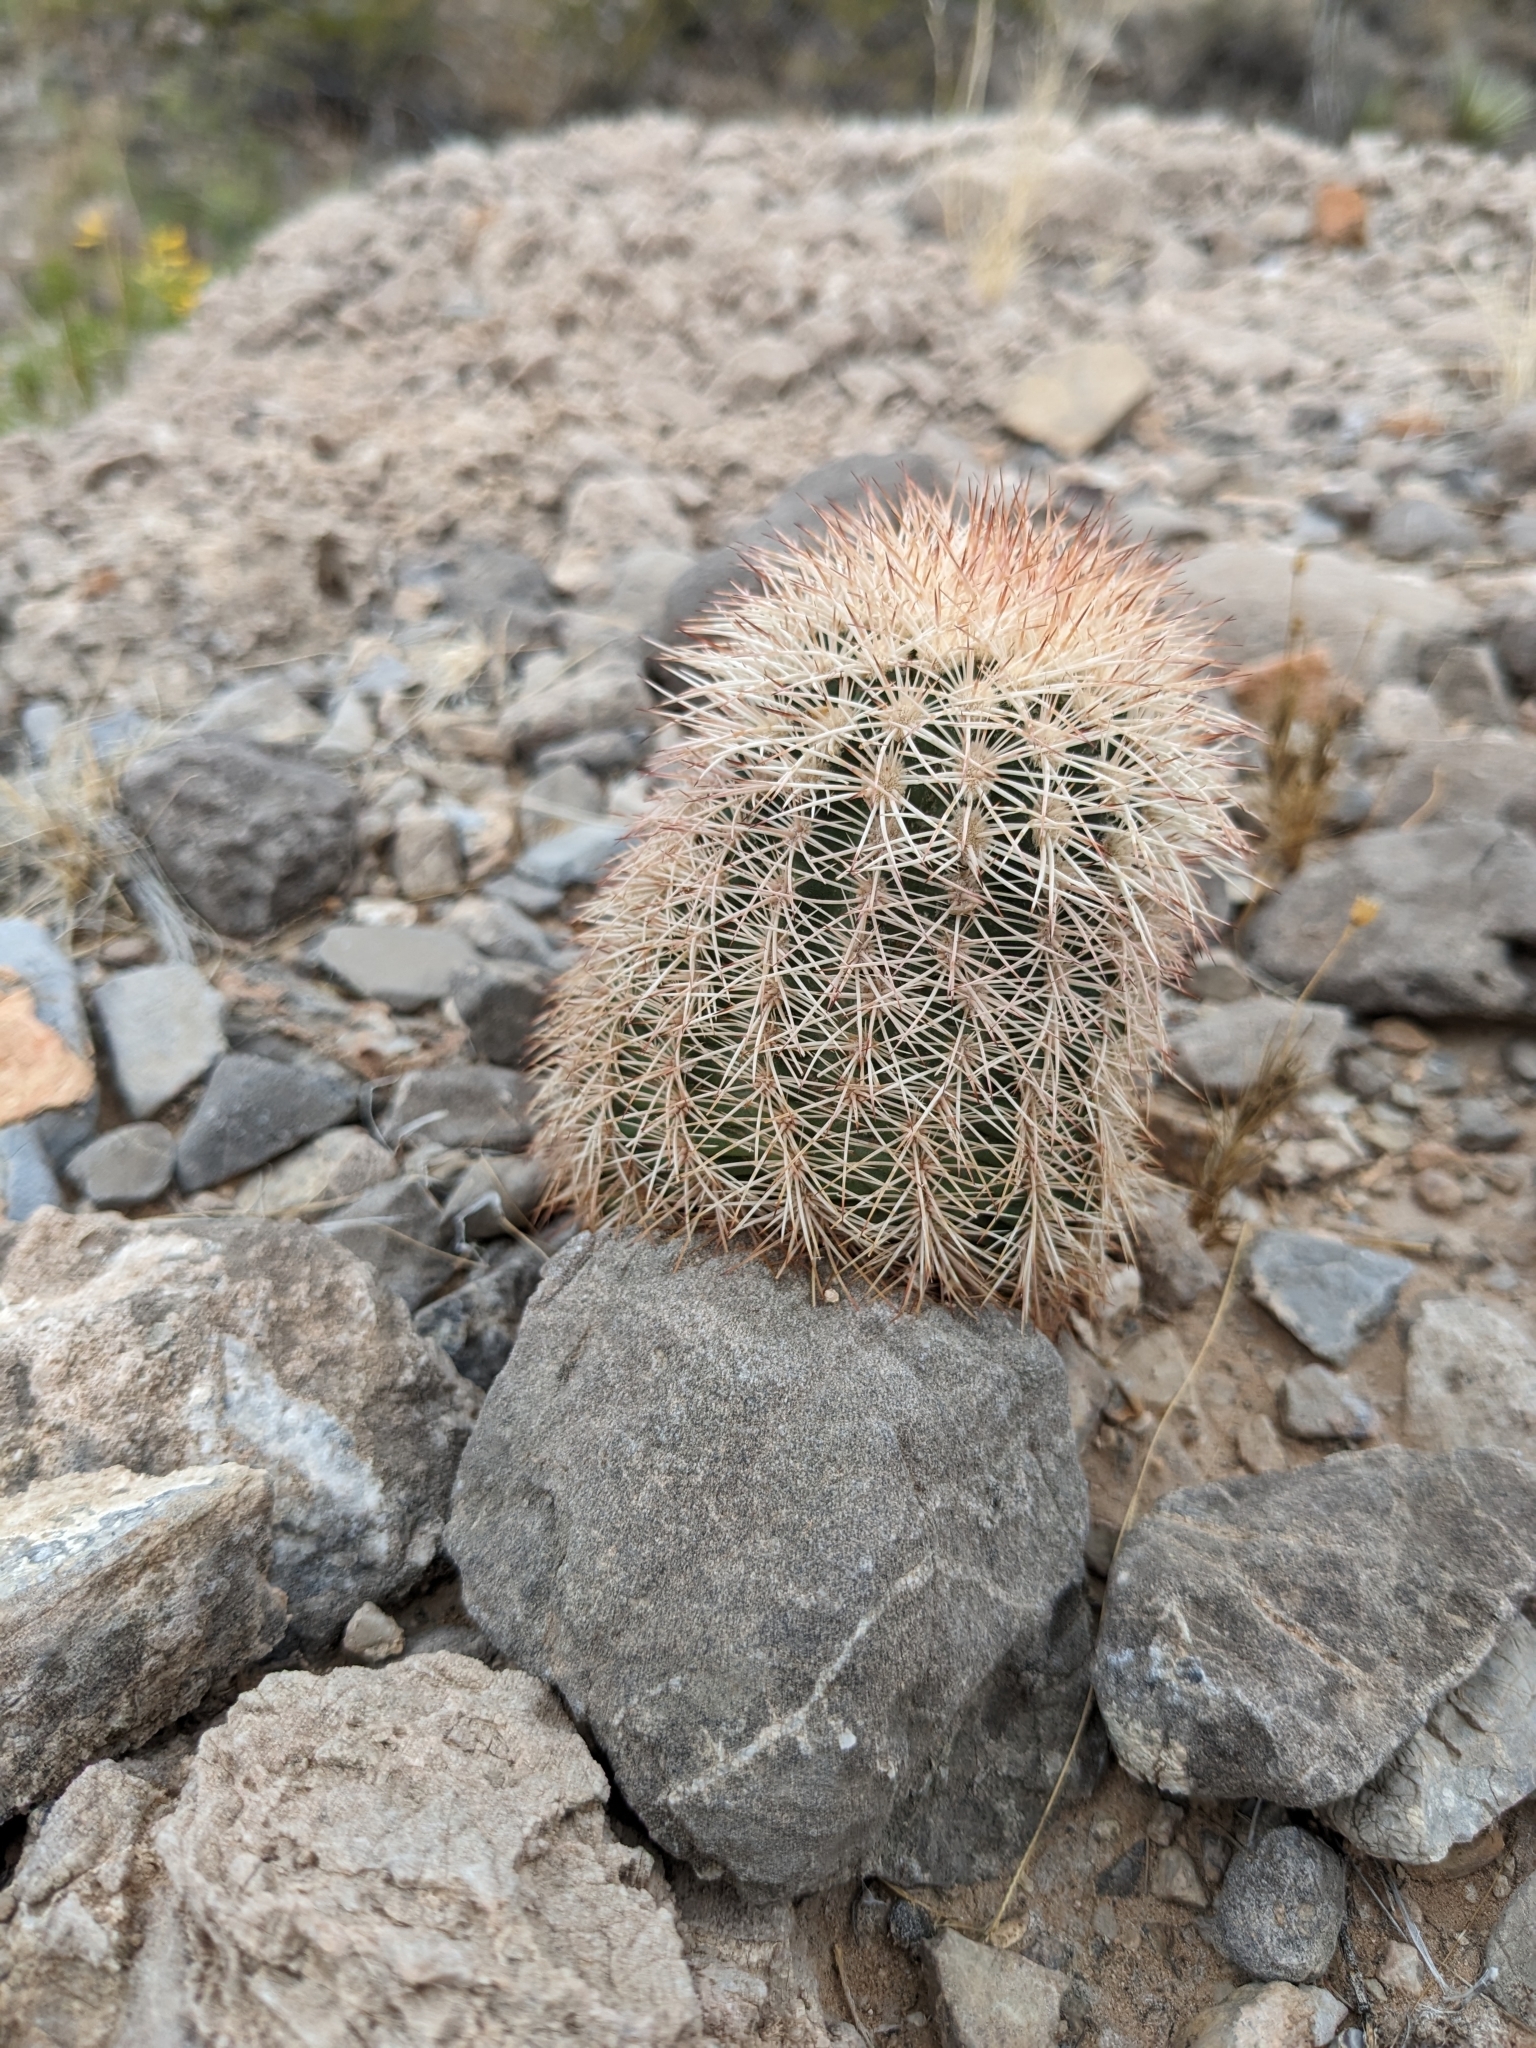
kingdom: Plantae
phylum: Tracheophyta
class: Magnoliopsida
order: Caryophyllales
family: Cactaceae
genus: Echinocereus
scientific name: Echinocereus dasyacanthus
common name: Spiny hedgehog cactus
